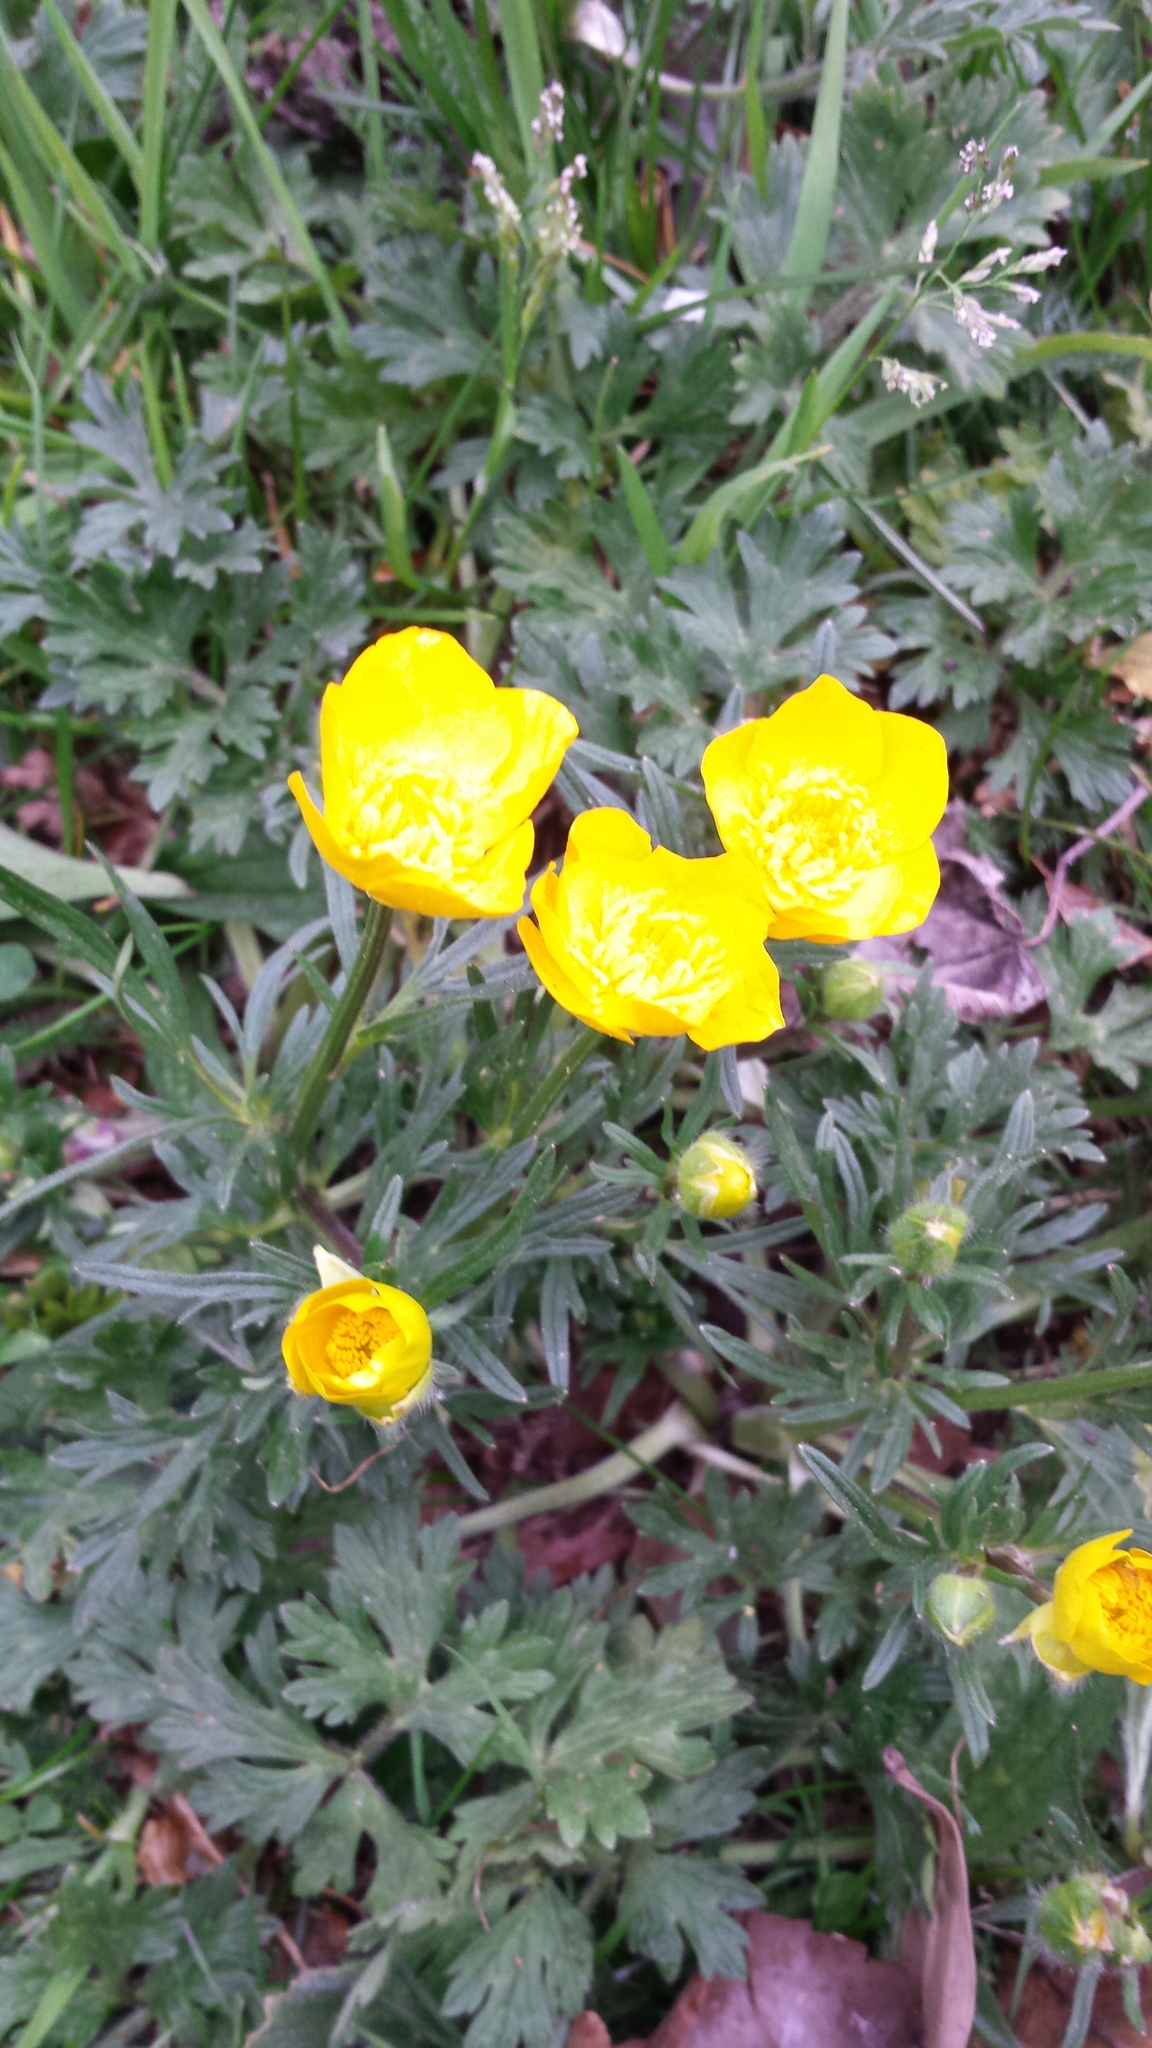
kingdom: Plantae
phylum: Tracheophyta
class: Magnoliopsida
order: Ranunculales
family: Ranunculaceae
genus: Ranunculus
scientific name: Ranunculus repens
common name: Creeping buttercup
